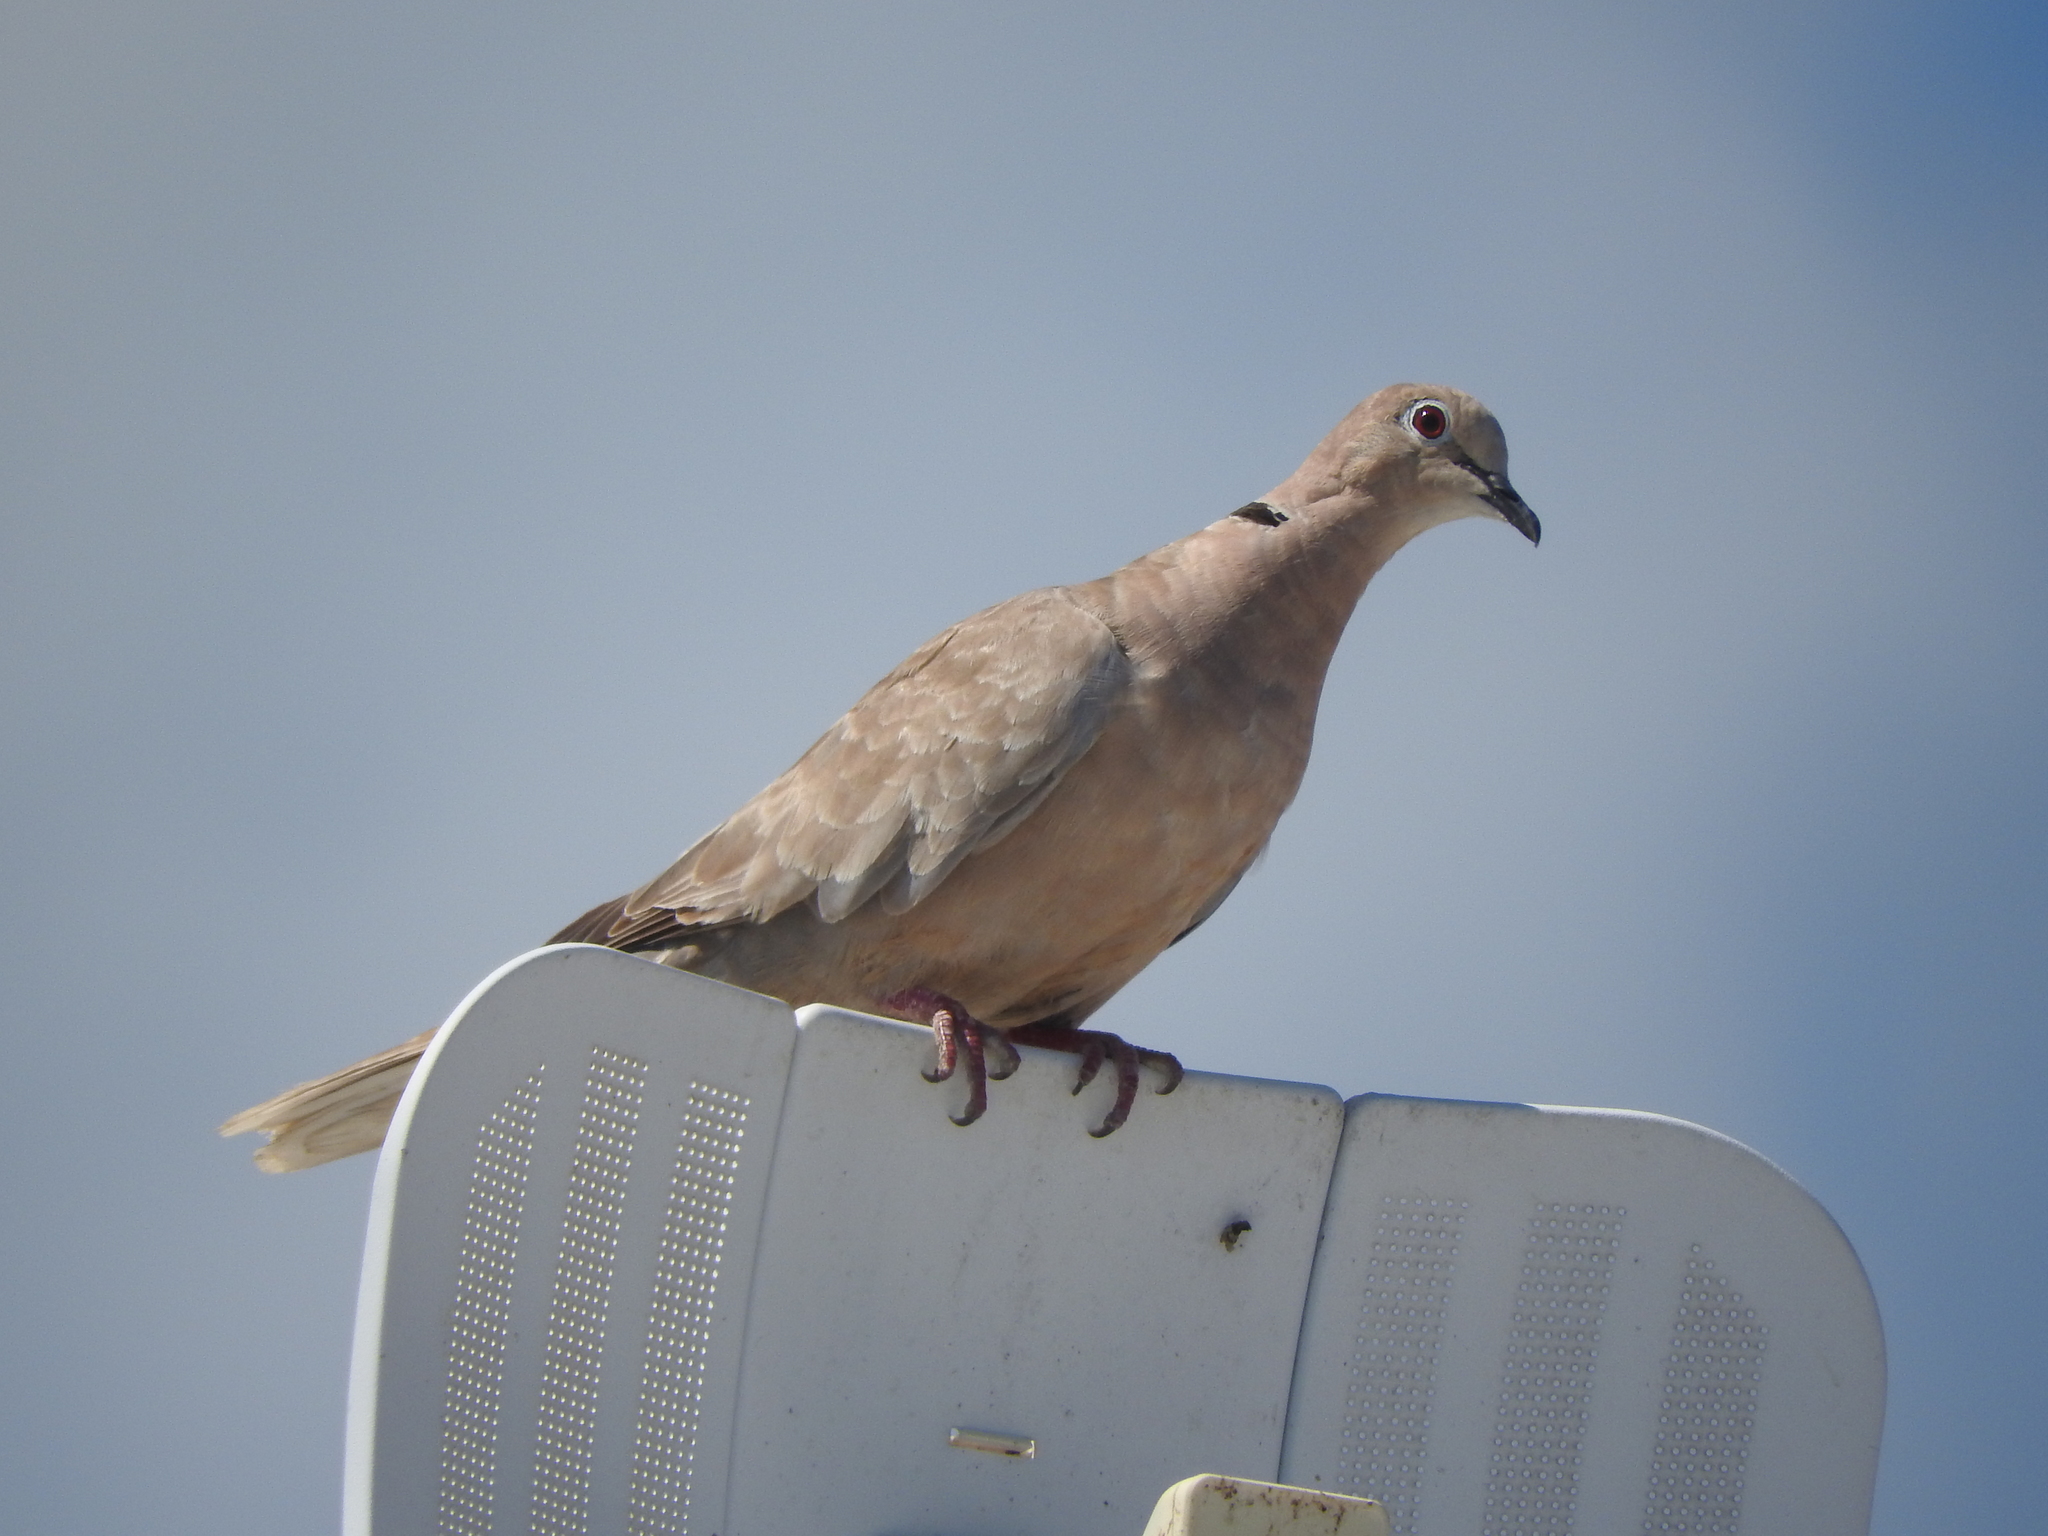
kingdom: Animalia
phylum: Chordata
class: Aves
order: Columbiformes
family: Columbidae
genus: Streptopelia
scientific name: Streptopelia decaocto
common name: Eurasian collared dove
